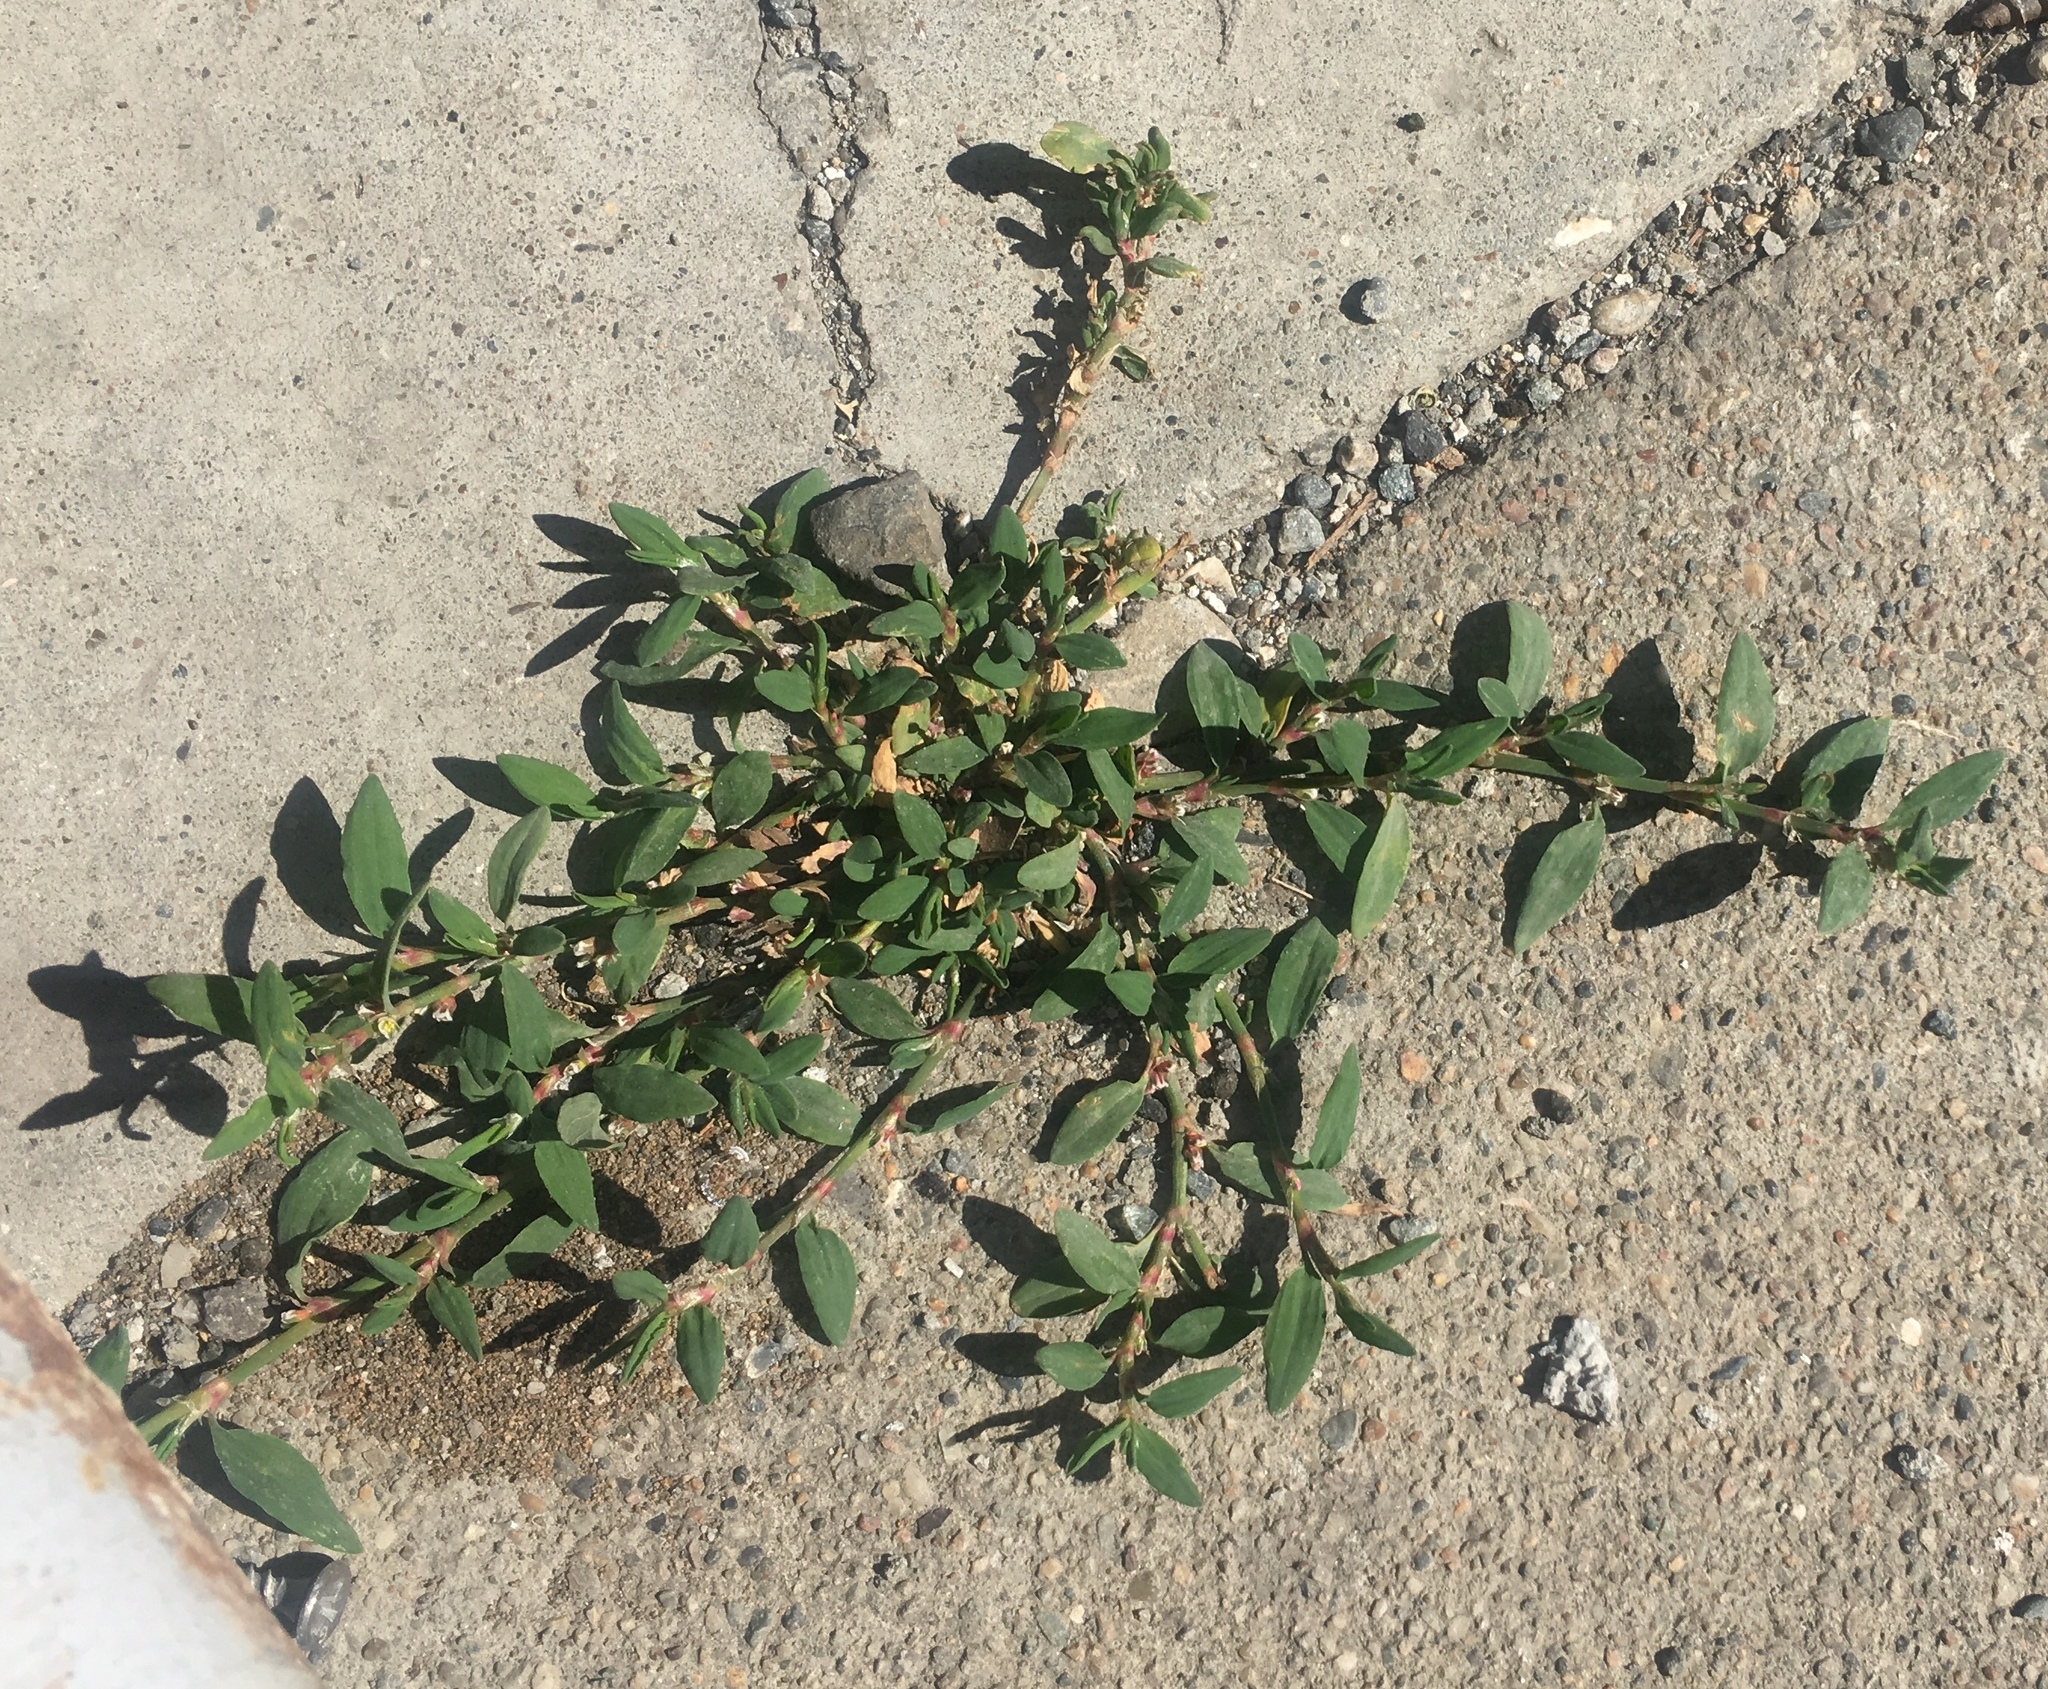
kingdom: Plantae
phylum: Tracheophyta
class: Magnoliopsida
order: Caryophyllales
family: Polygonaceae
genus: Polygonum
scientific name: Polygonum aviculare
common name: Prostrate knotweed
